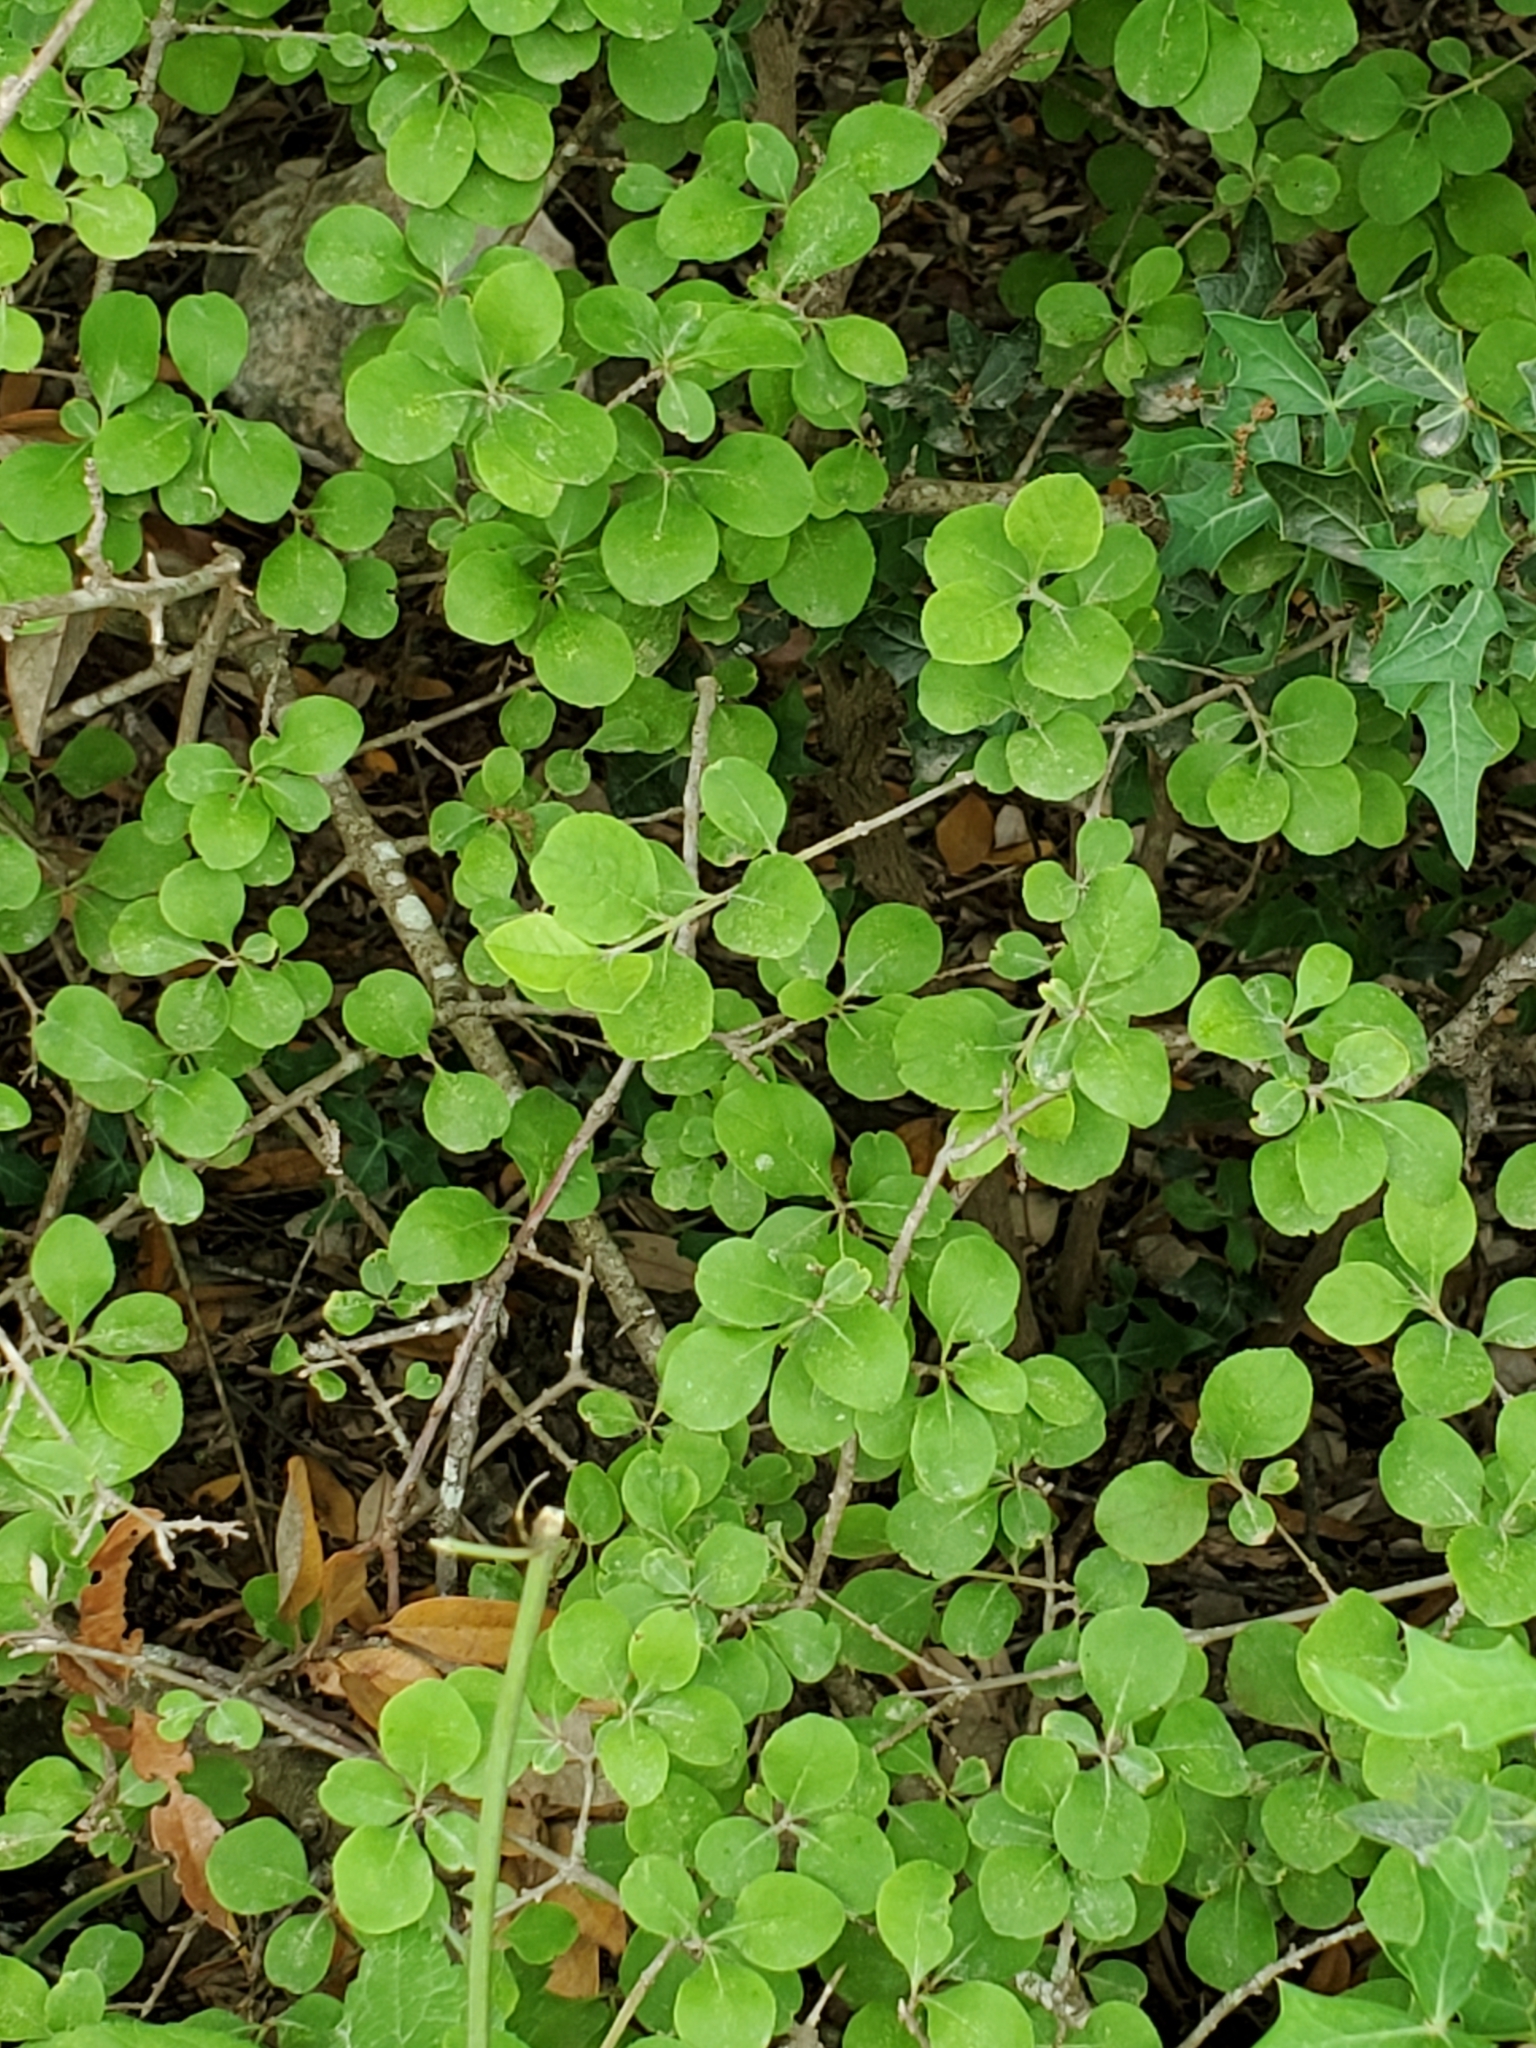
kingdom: Plantae
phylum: Tracheophyta
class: Magnoliopsida
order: Lamiales
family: Oleaceae
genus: Forestiera
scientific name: Forestiera pubescens
